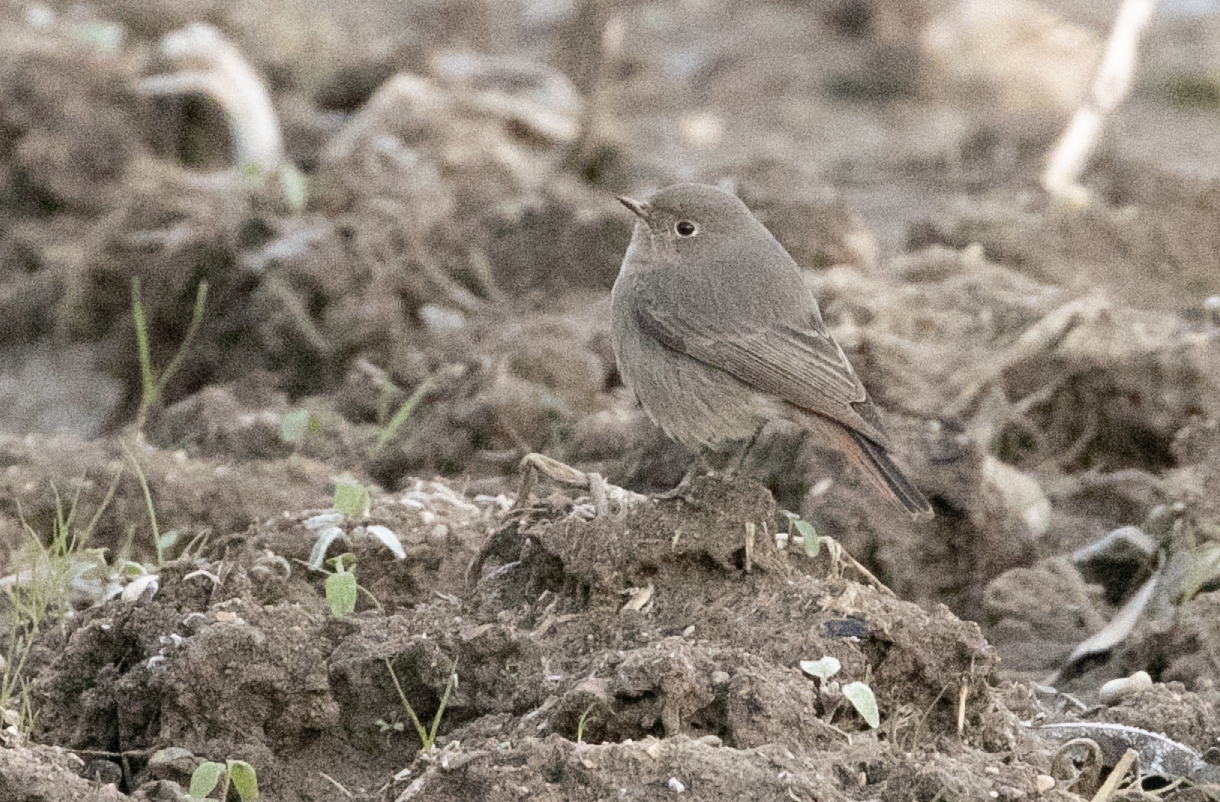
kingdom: Animalia
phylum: Chordata
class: Aves
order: Passeriformes
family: Muscicapidae
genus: Phoenicurus
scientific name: Phoenicurus ochruros
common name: Black redstart
